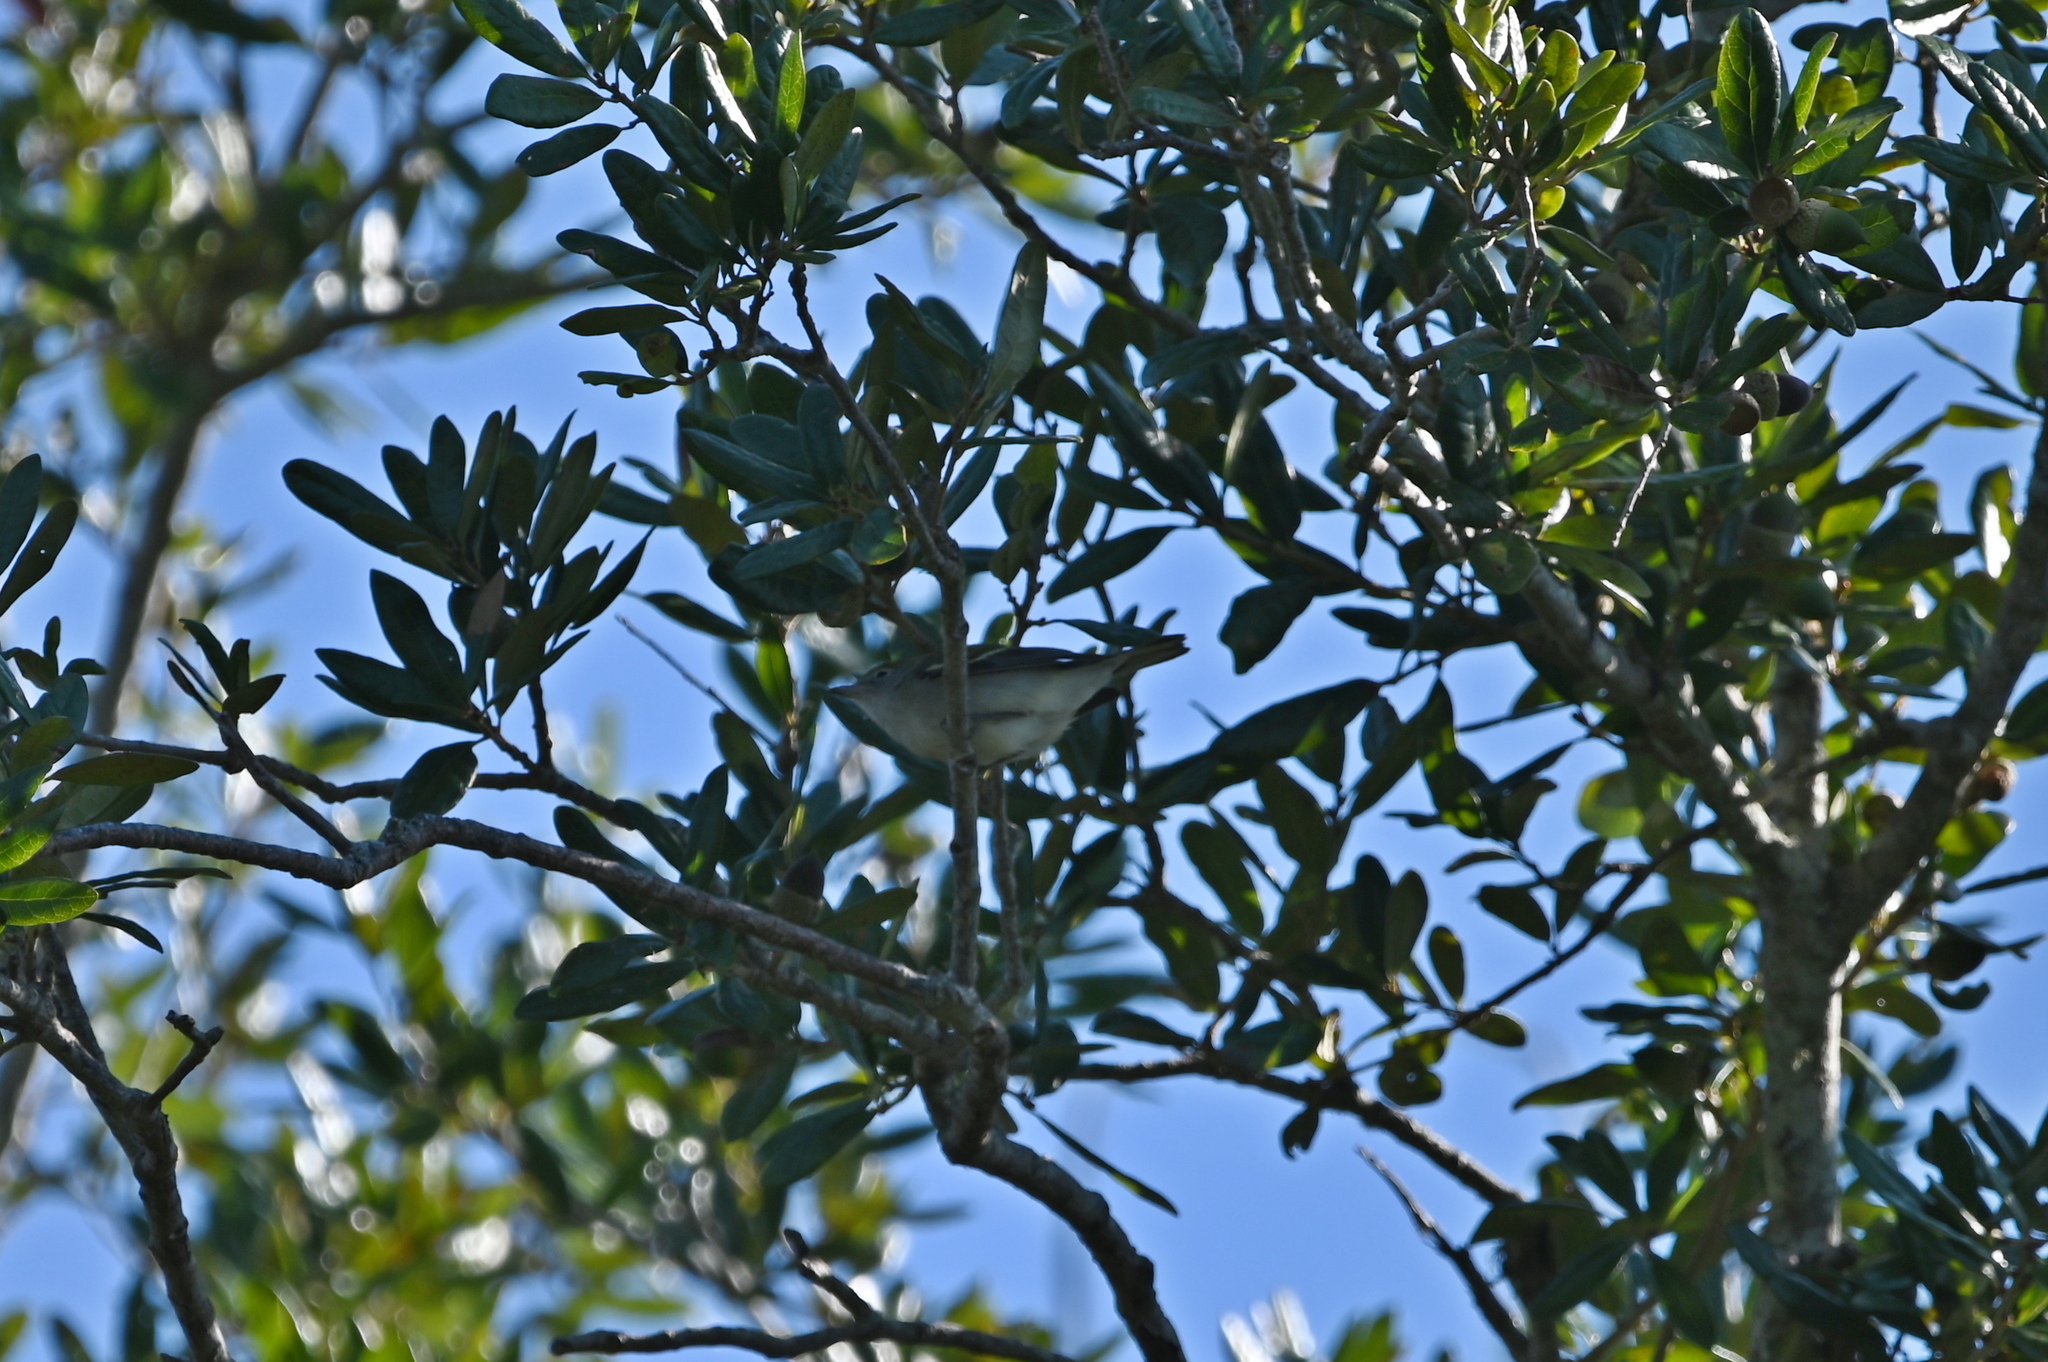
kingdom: Animalia
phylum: Chordata
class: Aves
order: Passeriformes
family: Parulidae
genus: Setophaga
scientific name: Setophaga pensylvanica
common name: Chestnut-sided warbler
